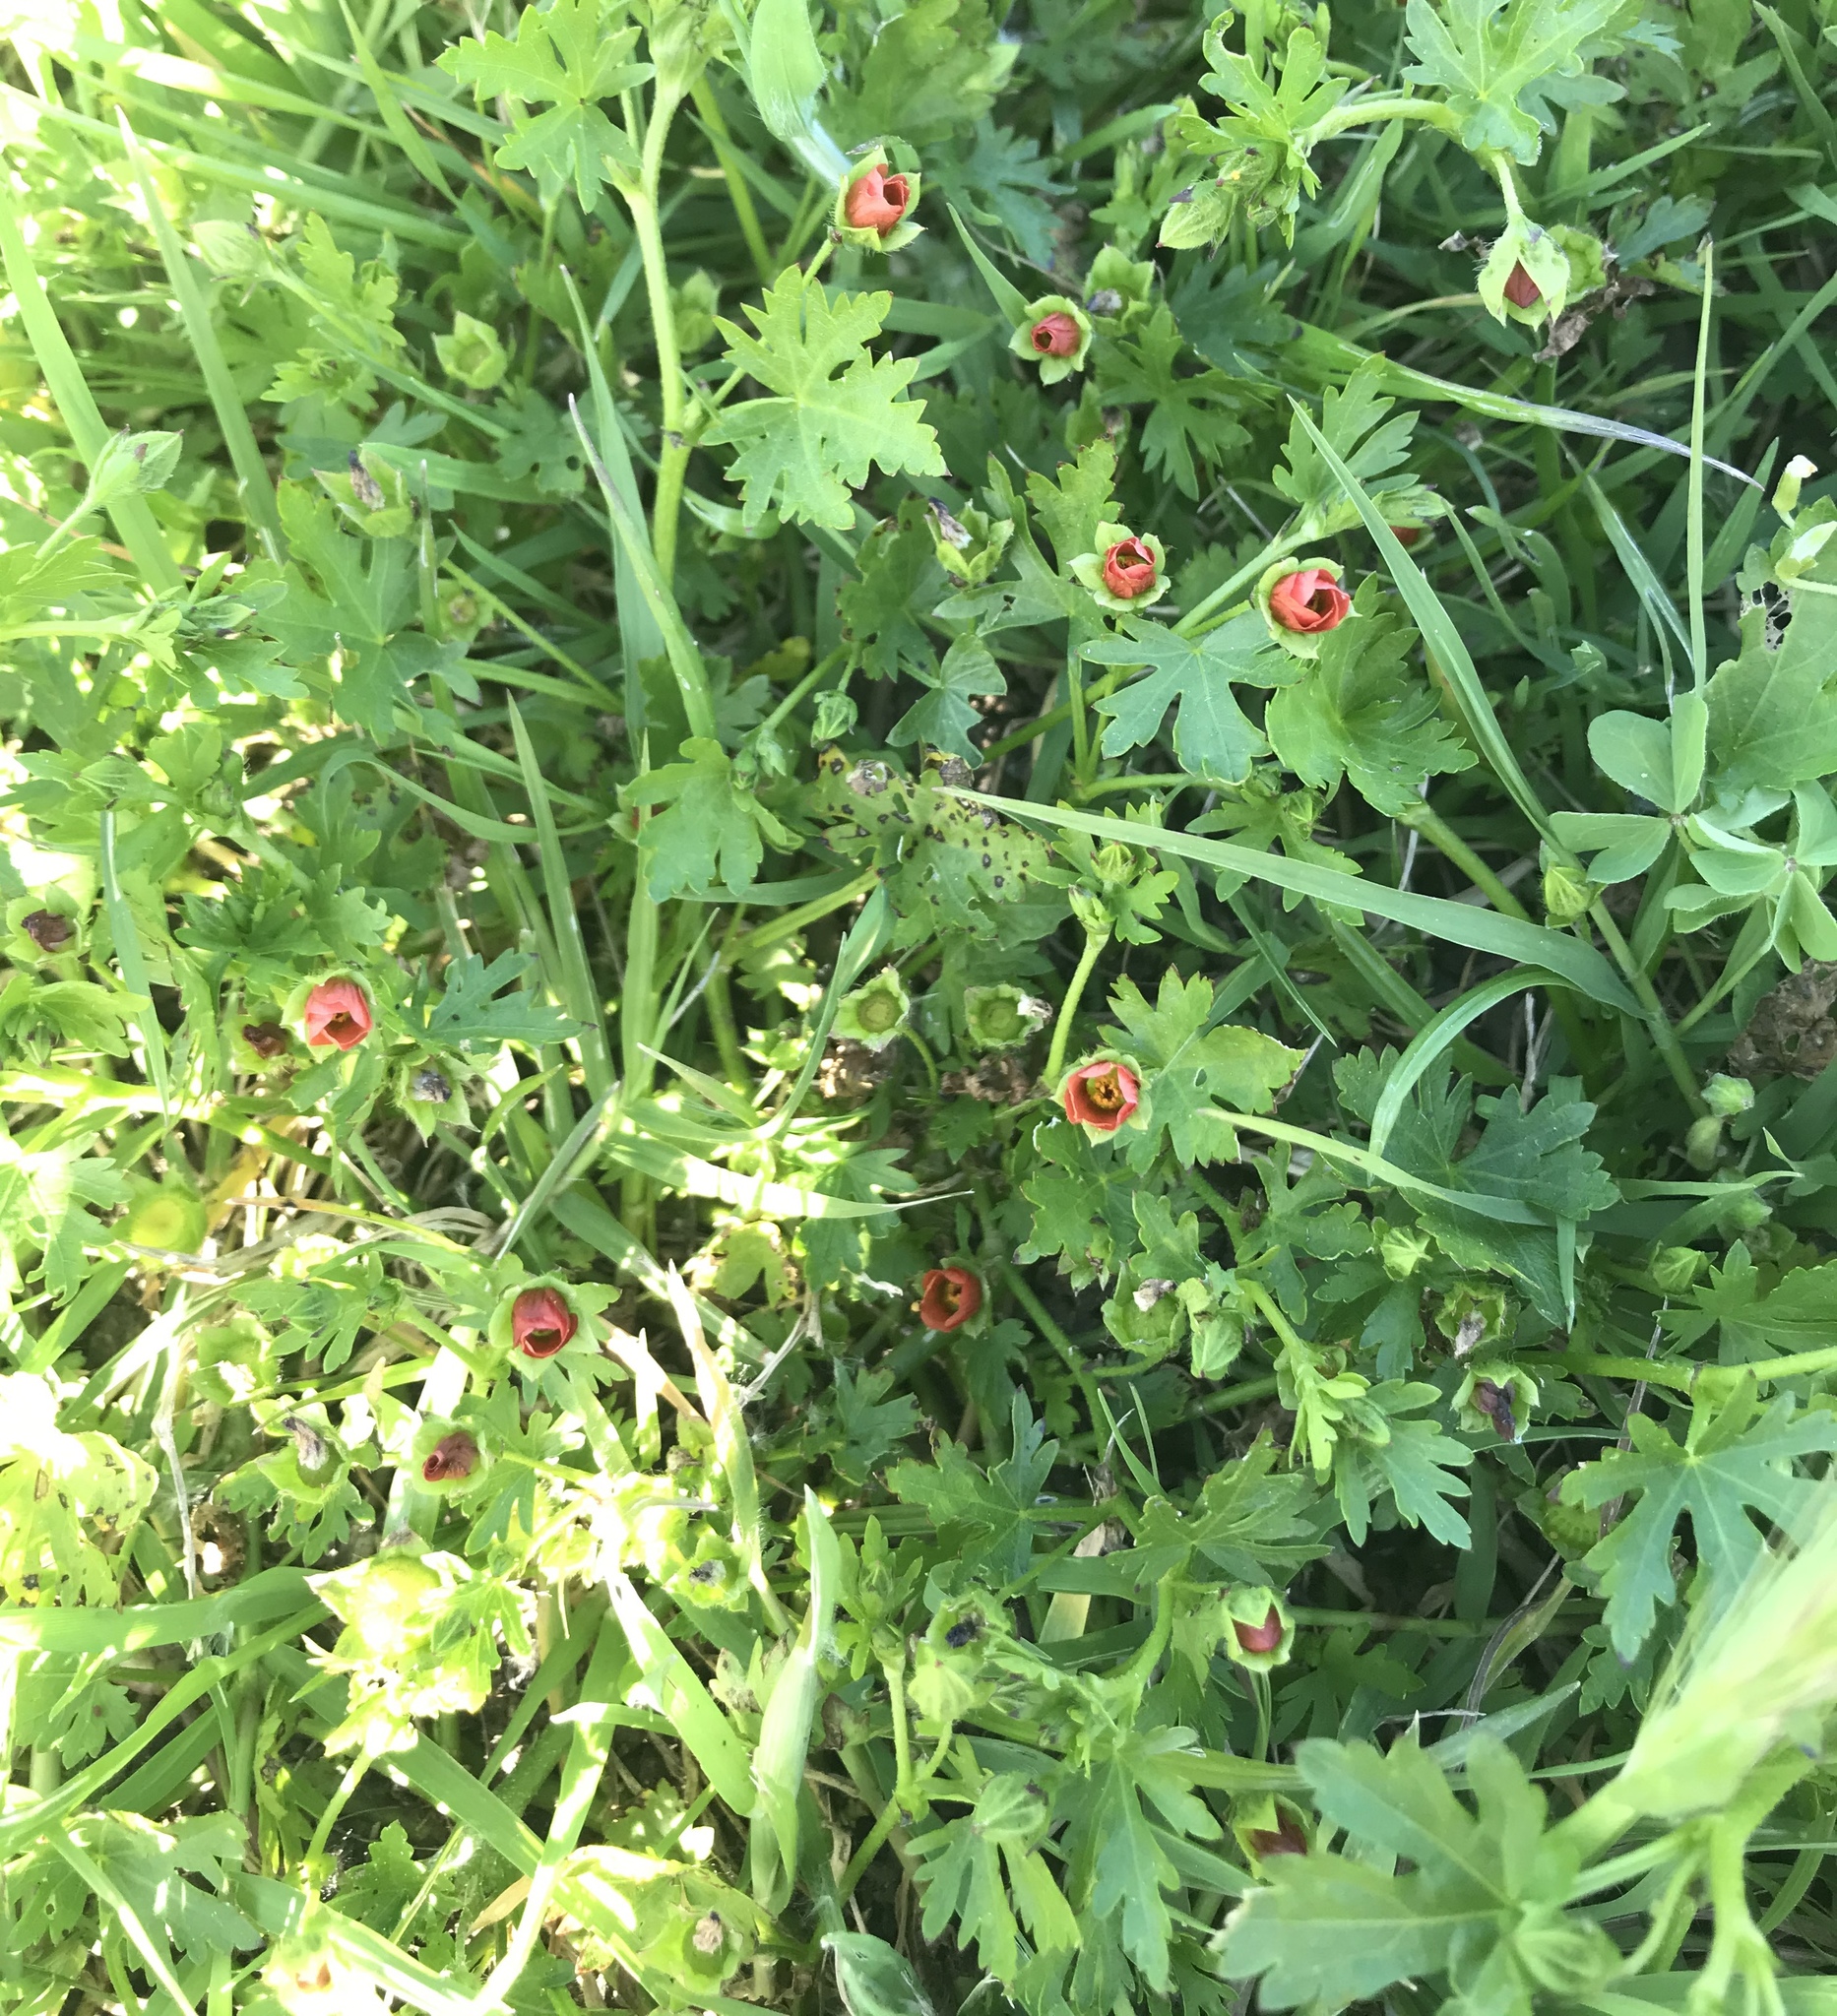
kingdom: Plantae
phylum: Tracheophyta
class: Magnoliopsida
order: Malvales
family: Malvaceae
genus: Modiola
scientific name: Modiola caroliniana
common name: Carolina bristlemallow
